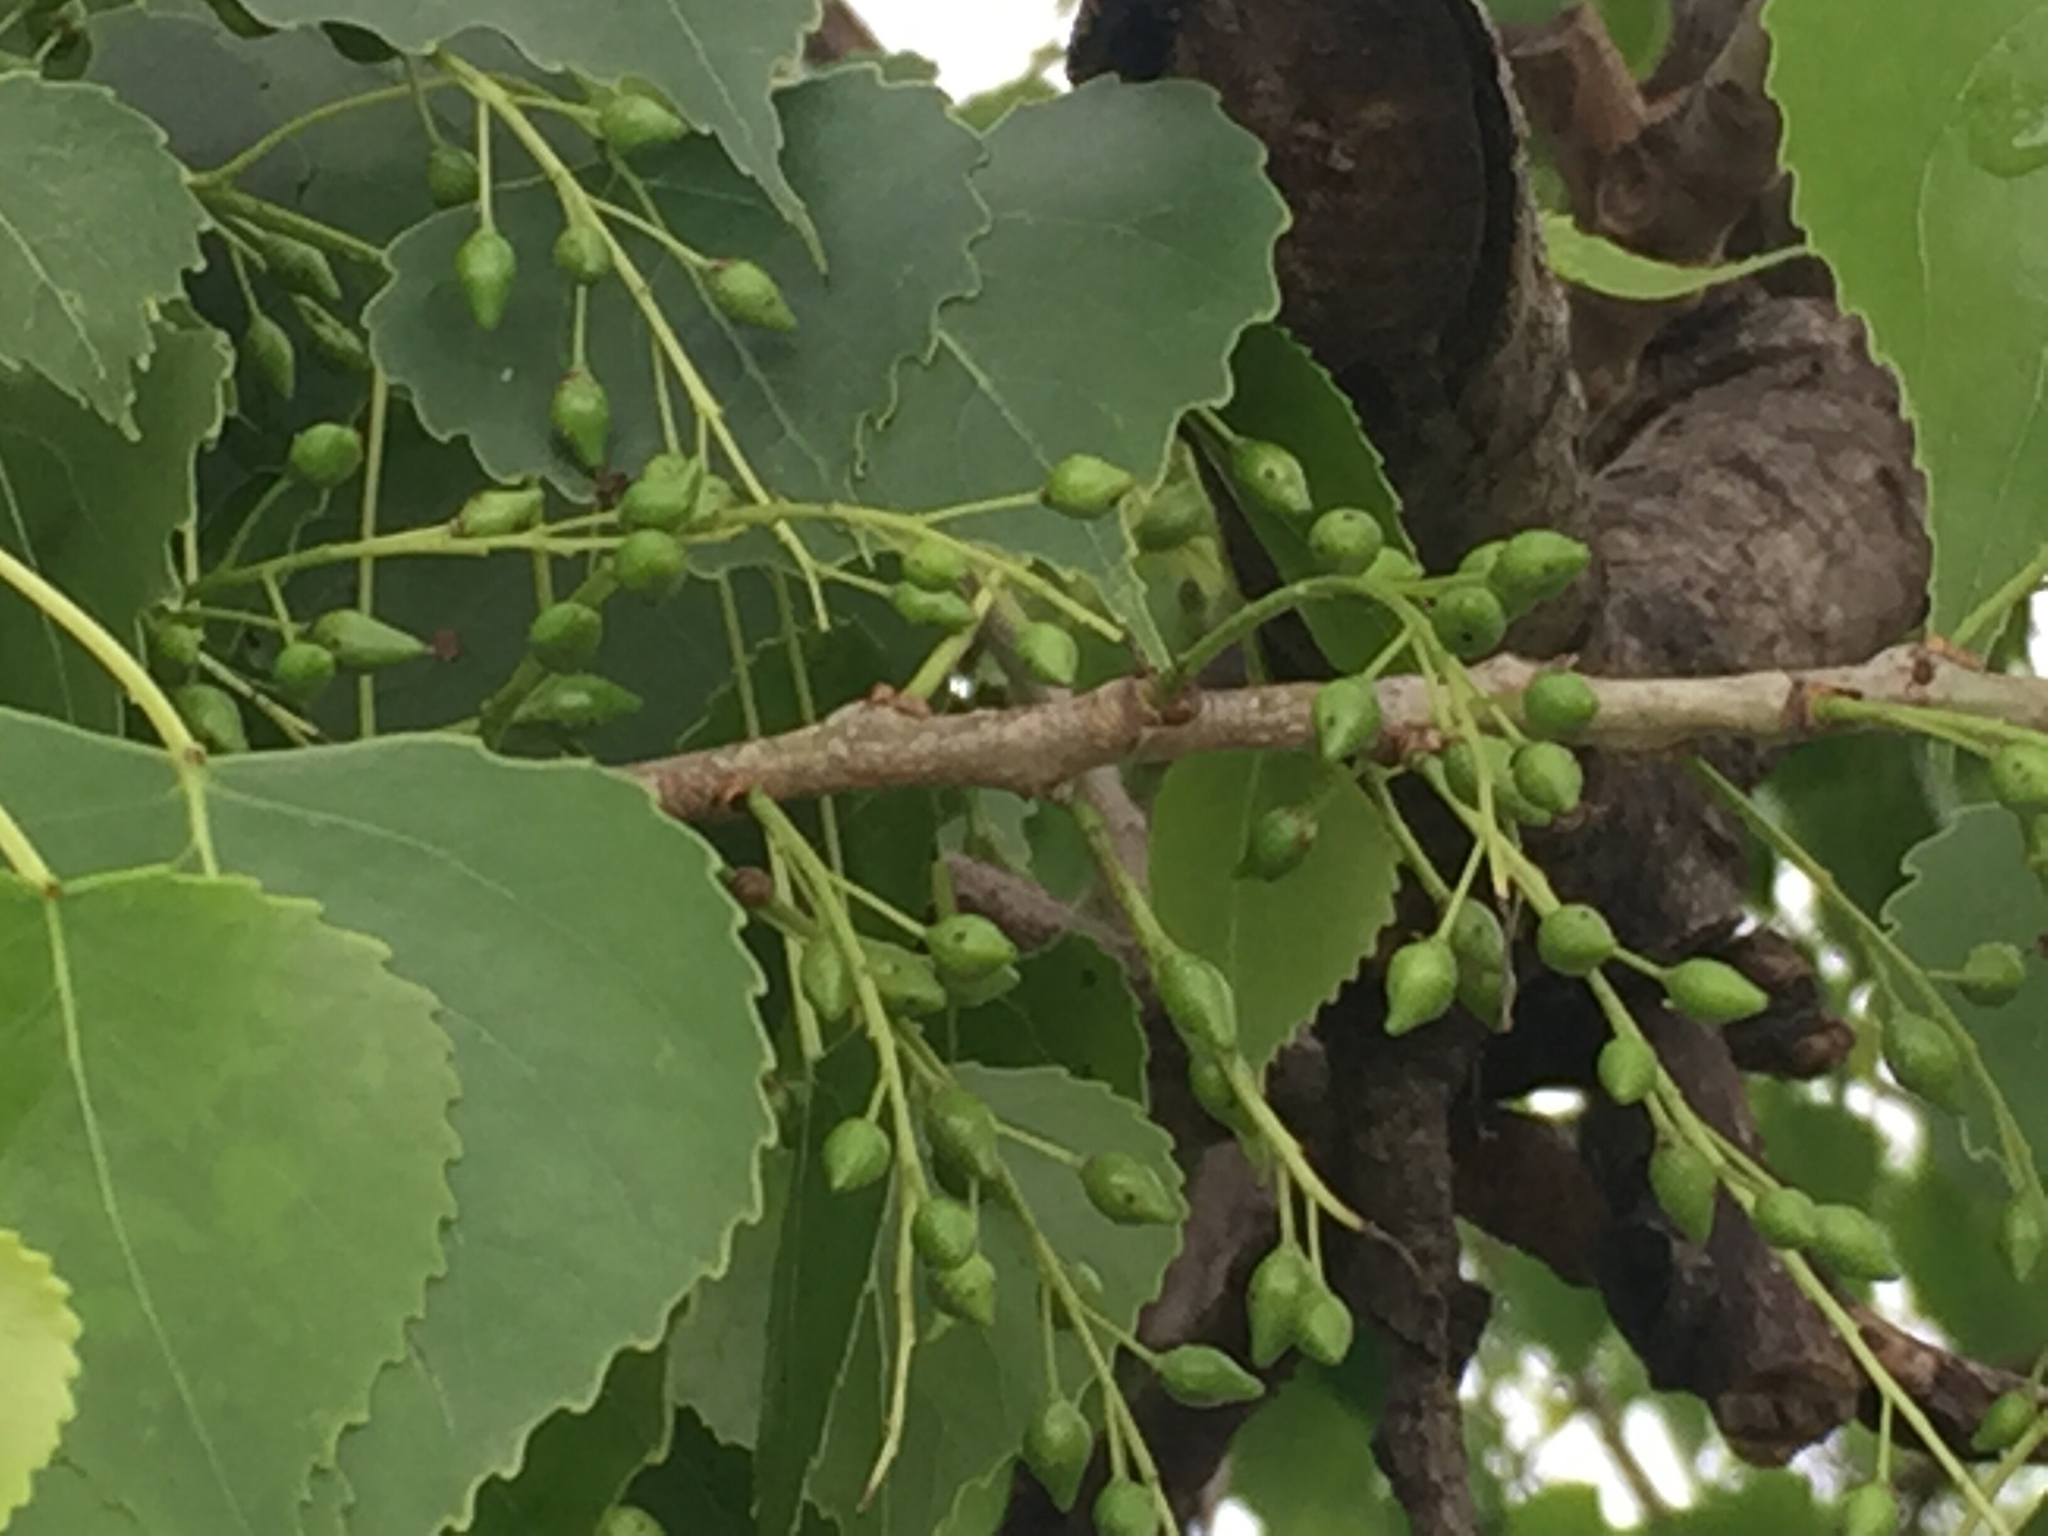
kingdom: Plantae
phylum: Tracheophyta
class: Magnoliopsida
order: Malpighiales
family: Salicaceae
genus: Populus
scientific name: Populus deltoides
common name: Eastern cottonwood
